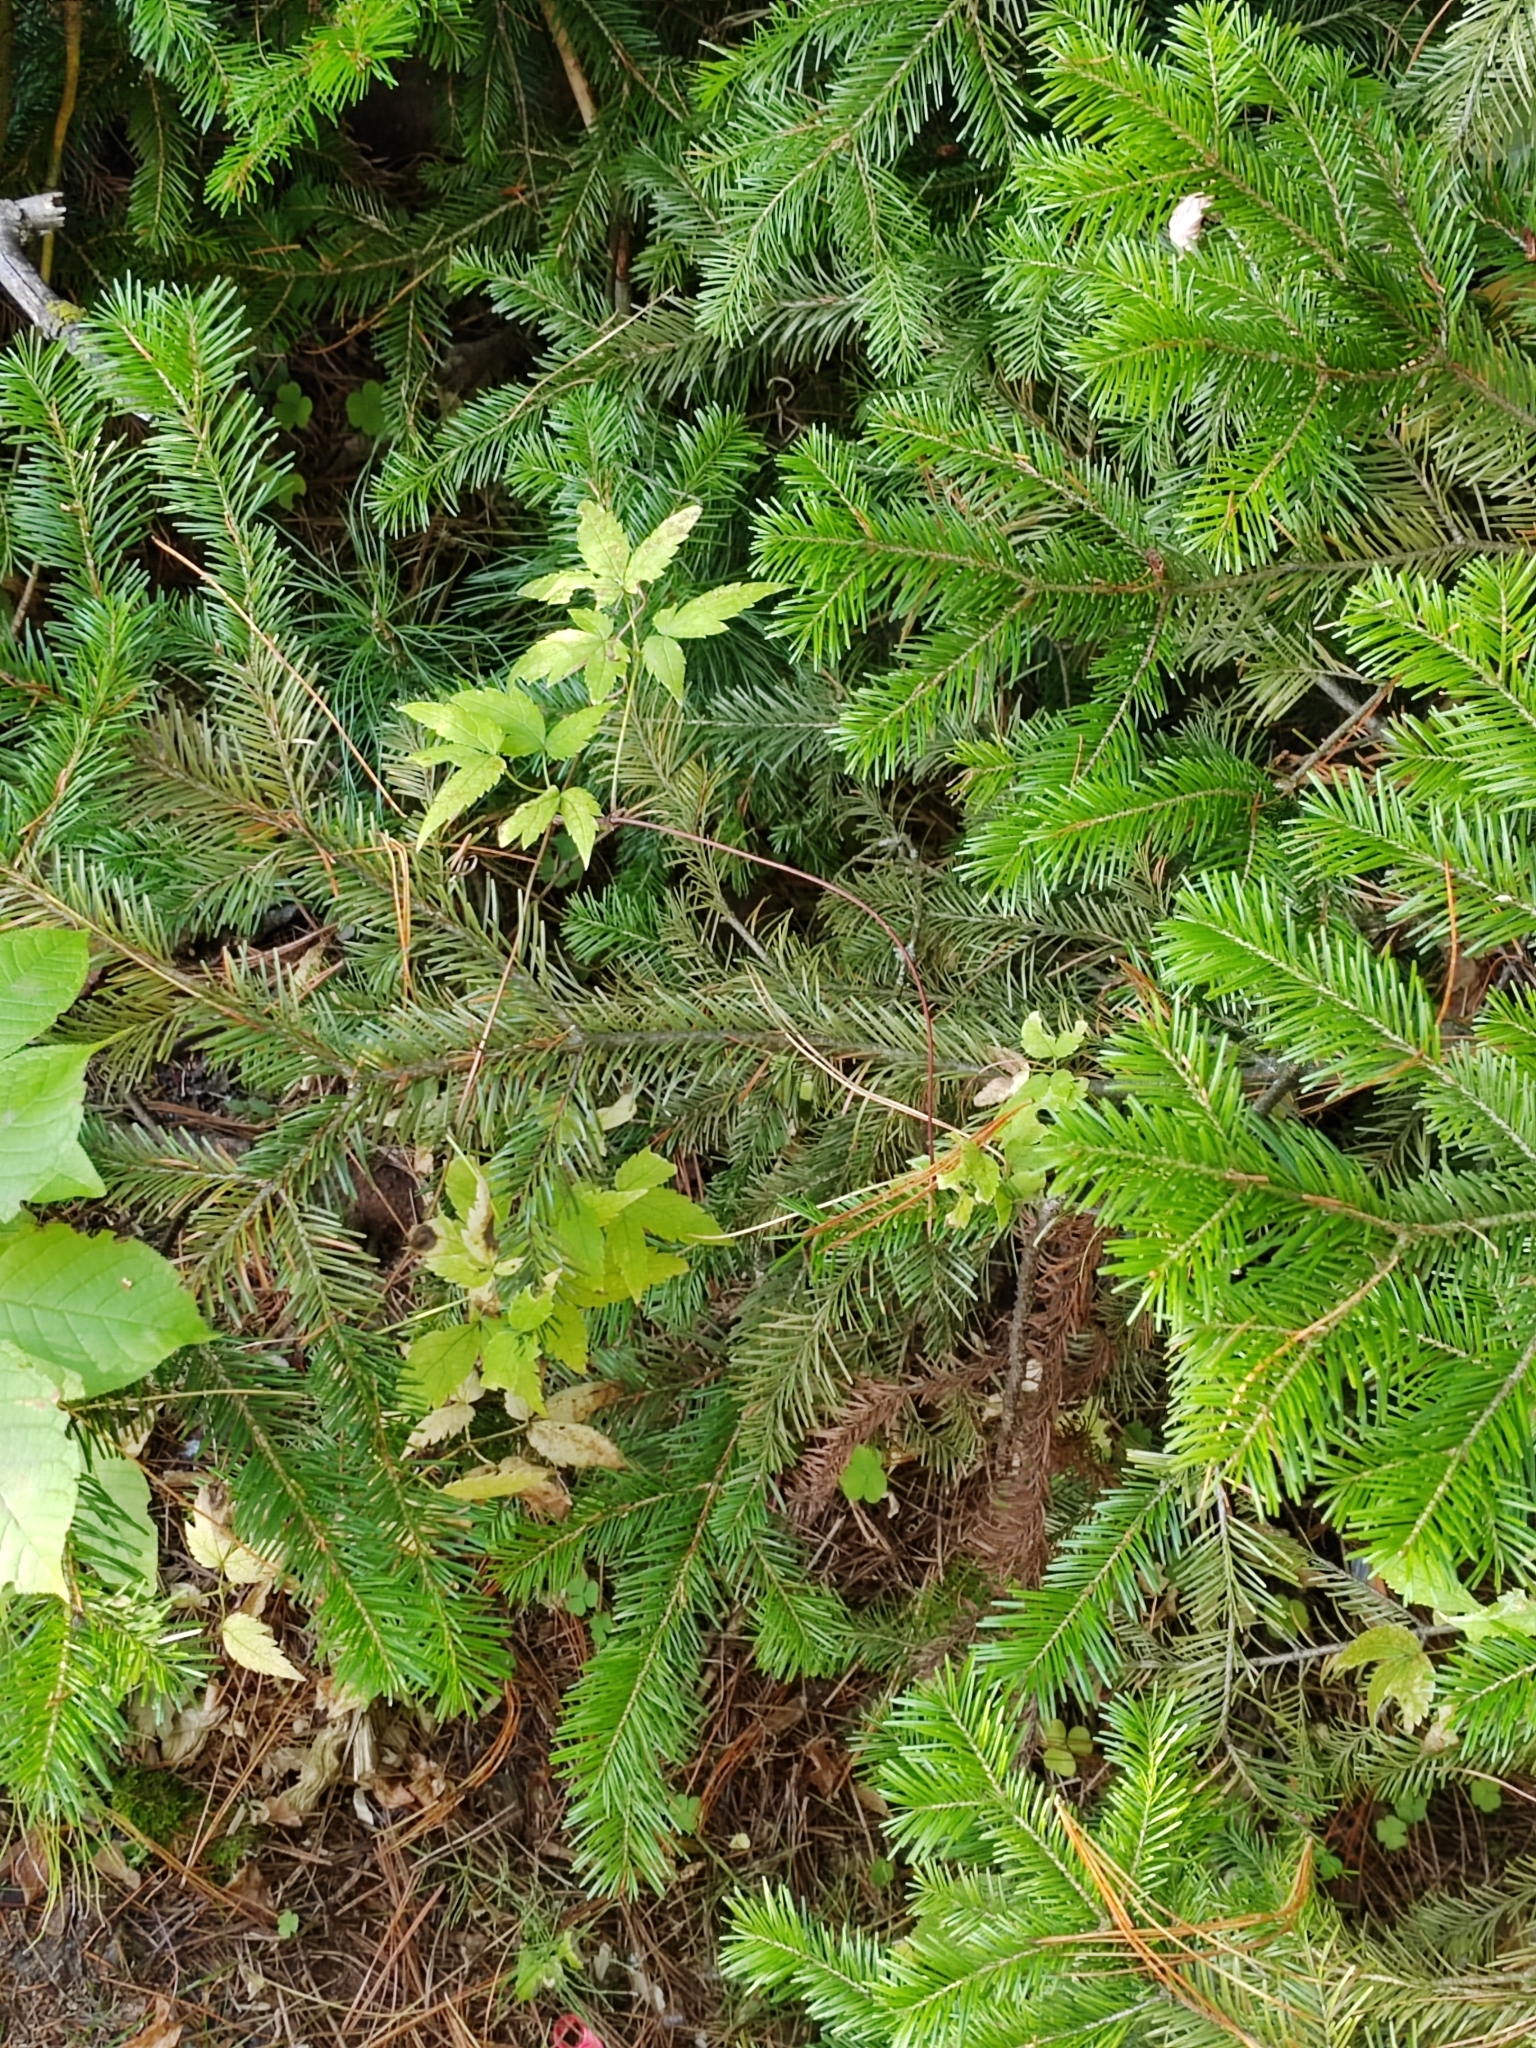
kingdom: Plantae
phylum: Tracheophyta
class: Pinopsida
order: Pinales
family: Pinaceae
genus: Abies
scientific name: Abies sibirica
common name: Siberian fir
